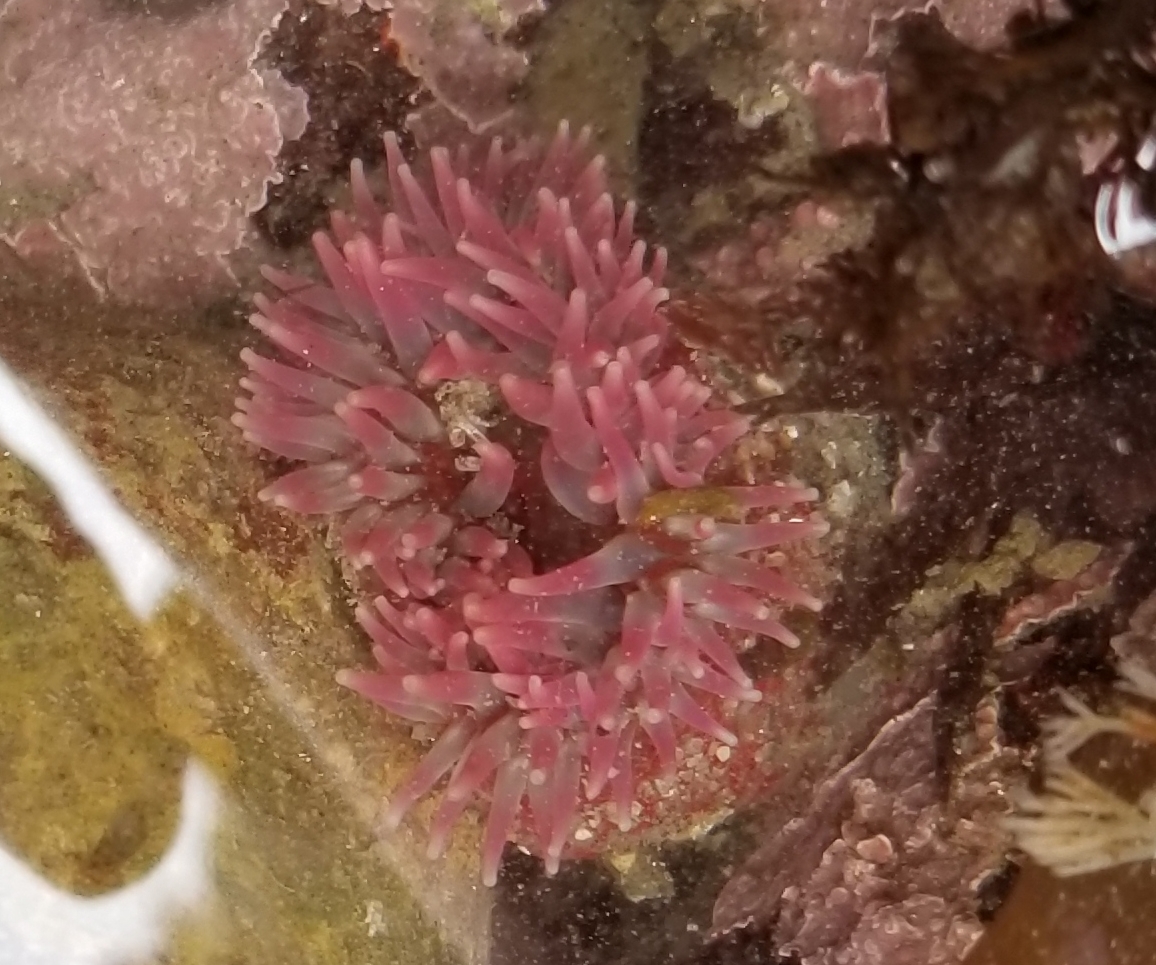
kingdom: Animalia
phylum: Cnidaria
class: Anthozoa
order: Actiniaria
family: Actiniidae
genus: Urticina
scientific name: Urticina clandestina
